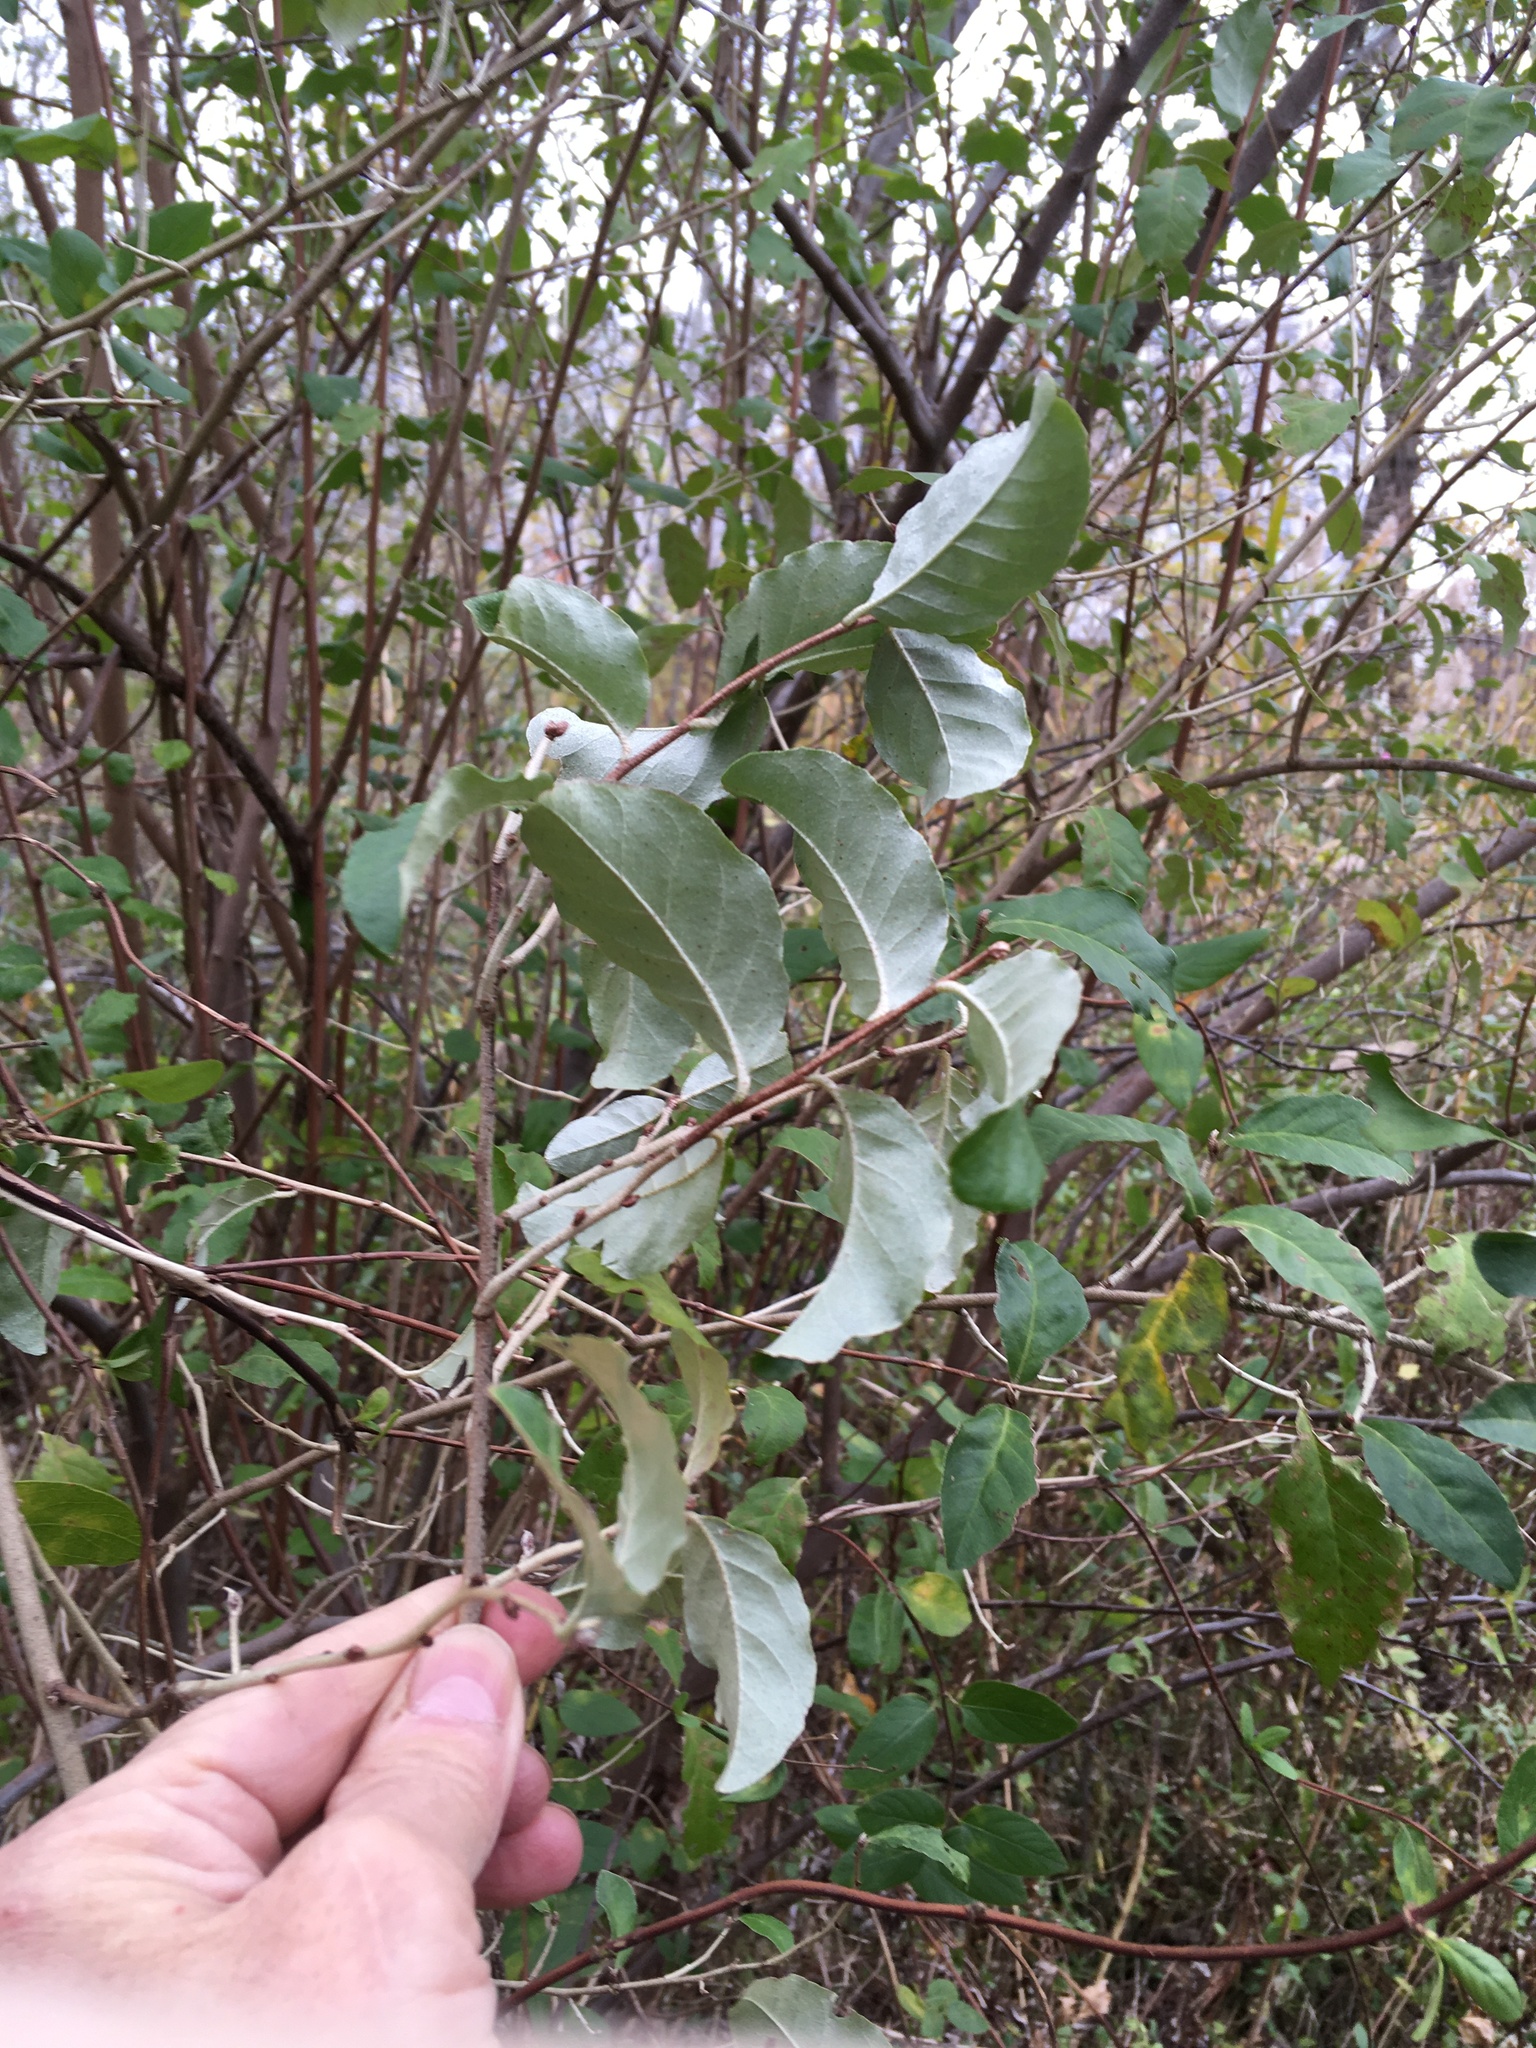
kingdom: Plantae
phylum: Tracheophyta
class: Magnoliopsida
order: Rosales
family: Elaeagnaceae
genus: Elaeagnus
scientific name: Elaeagnus umbellata
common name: Autumn olive
